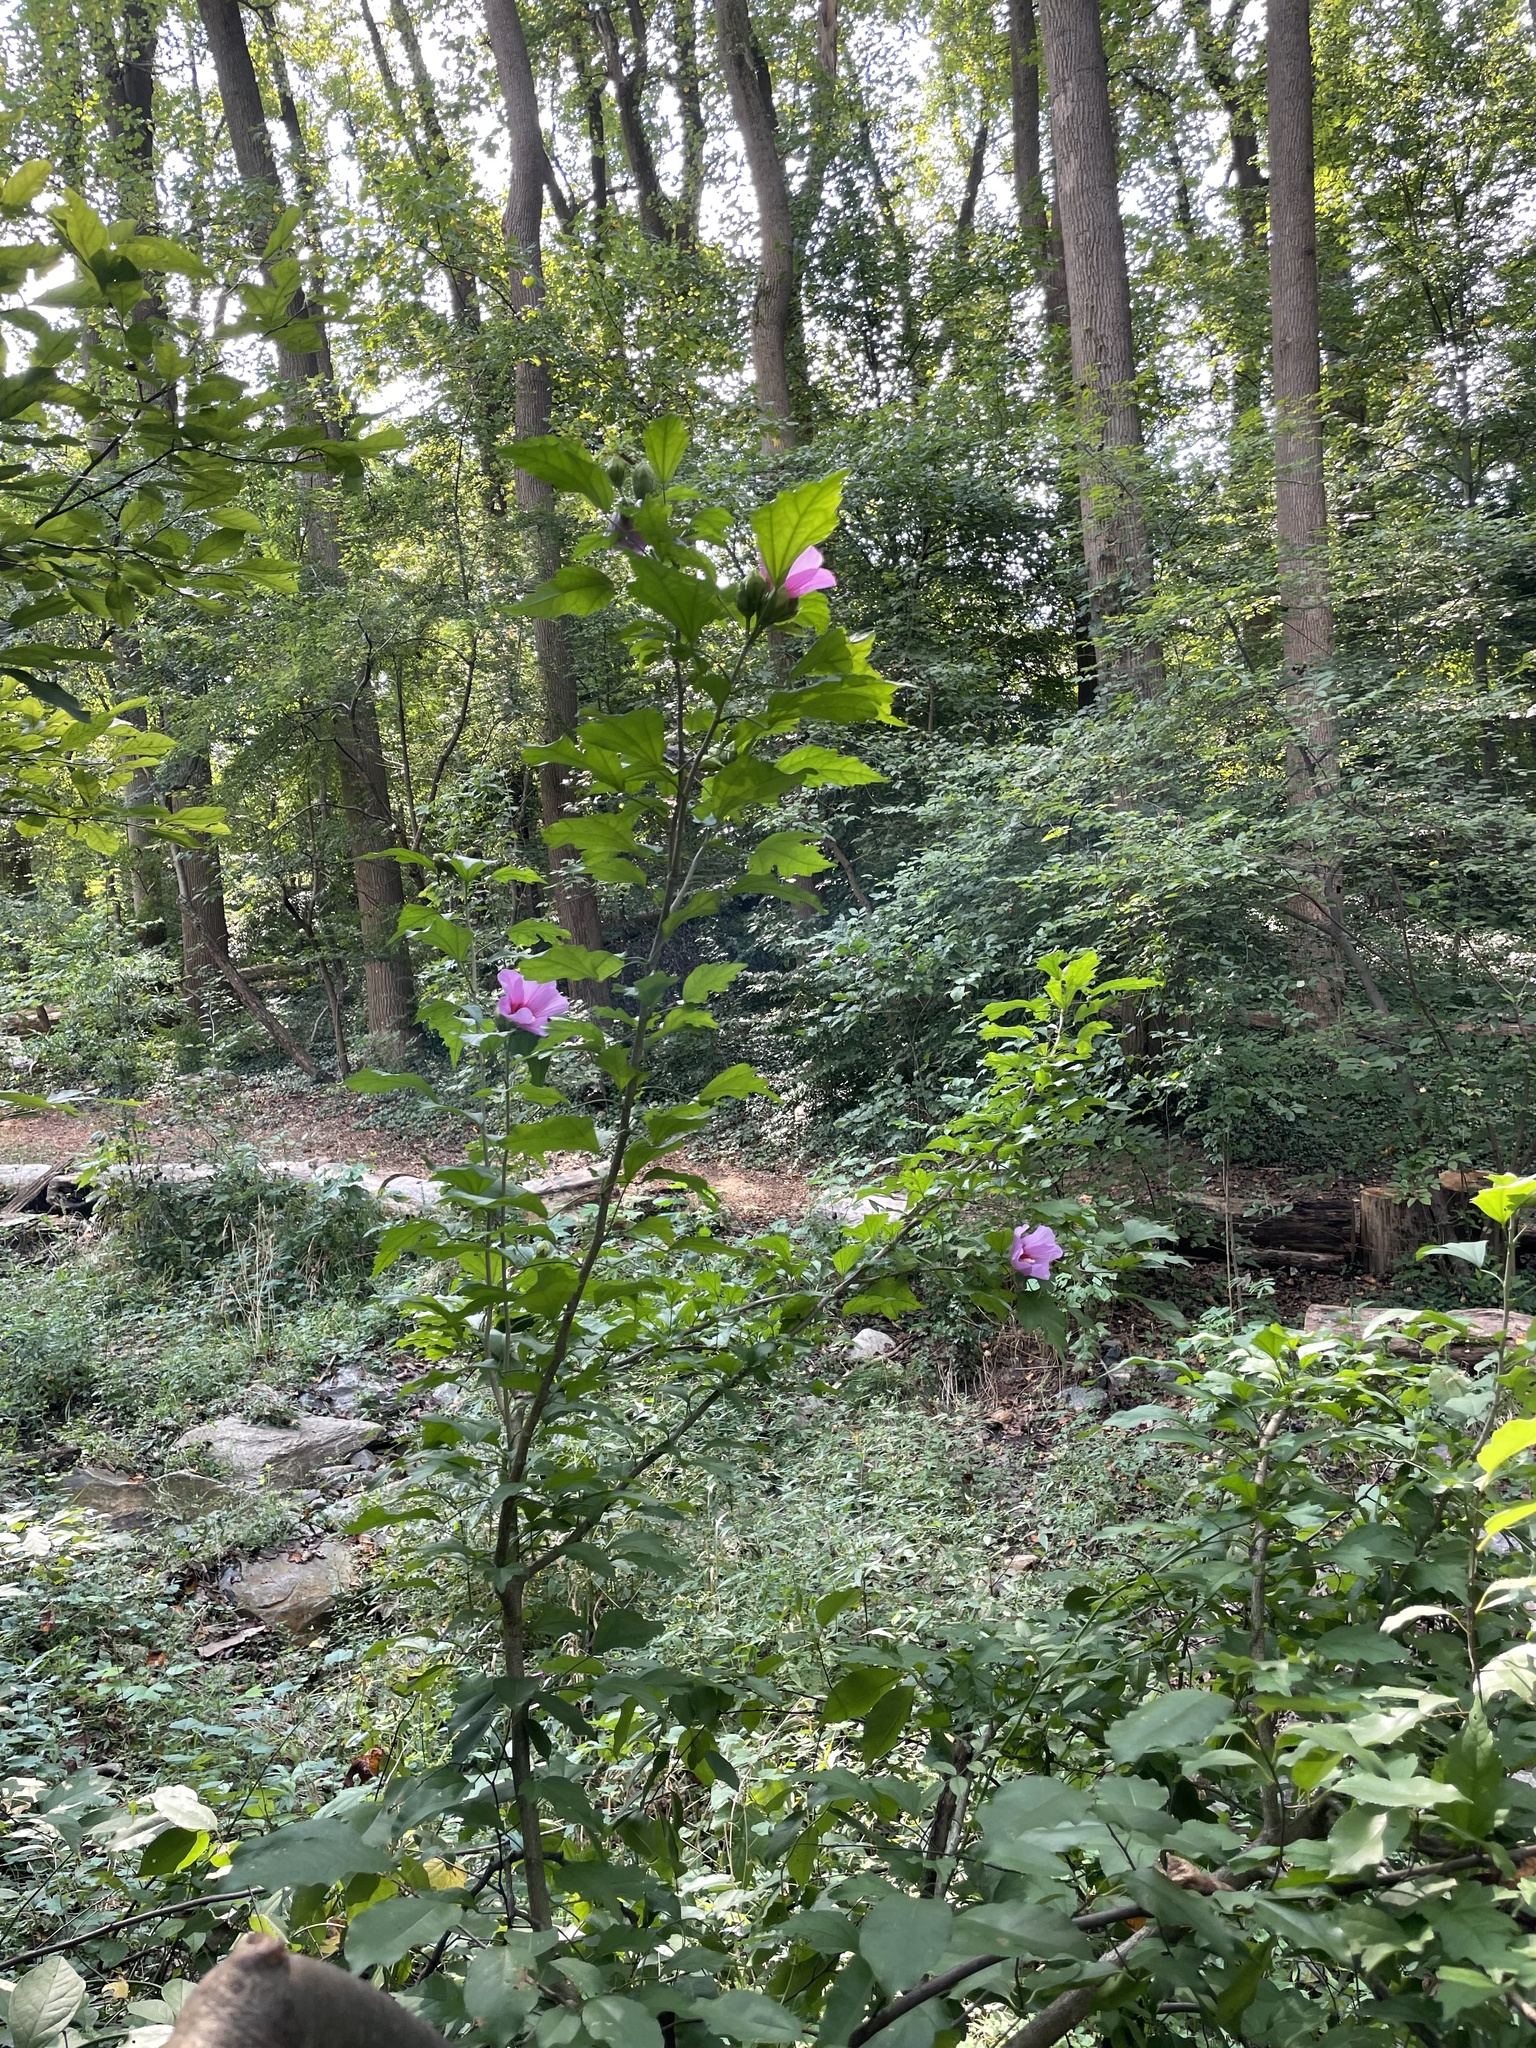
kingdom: Plantae
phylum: Tracheophyta
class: Magnoliopsida
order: Malvales
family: Malvaceae
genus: Hibiscus
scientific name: Hibiscus syriacus
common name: Syrian ketmia
